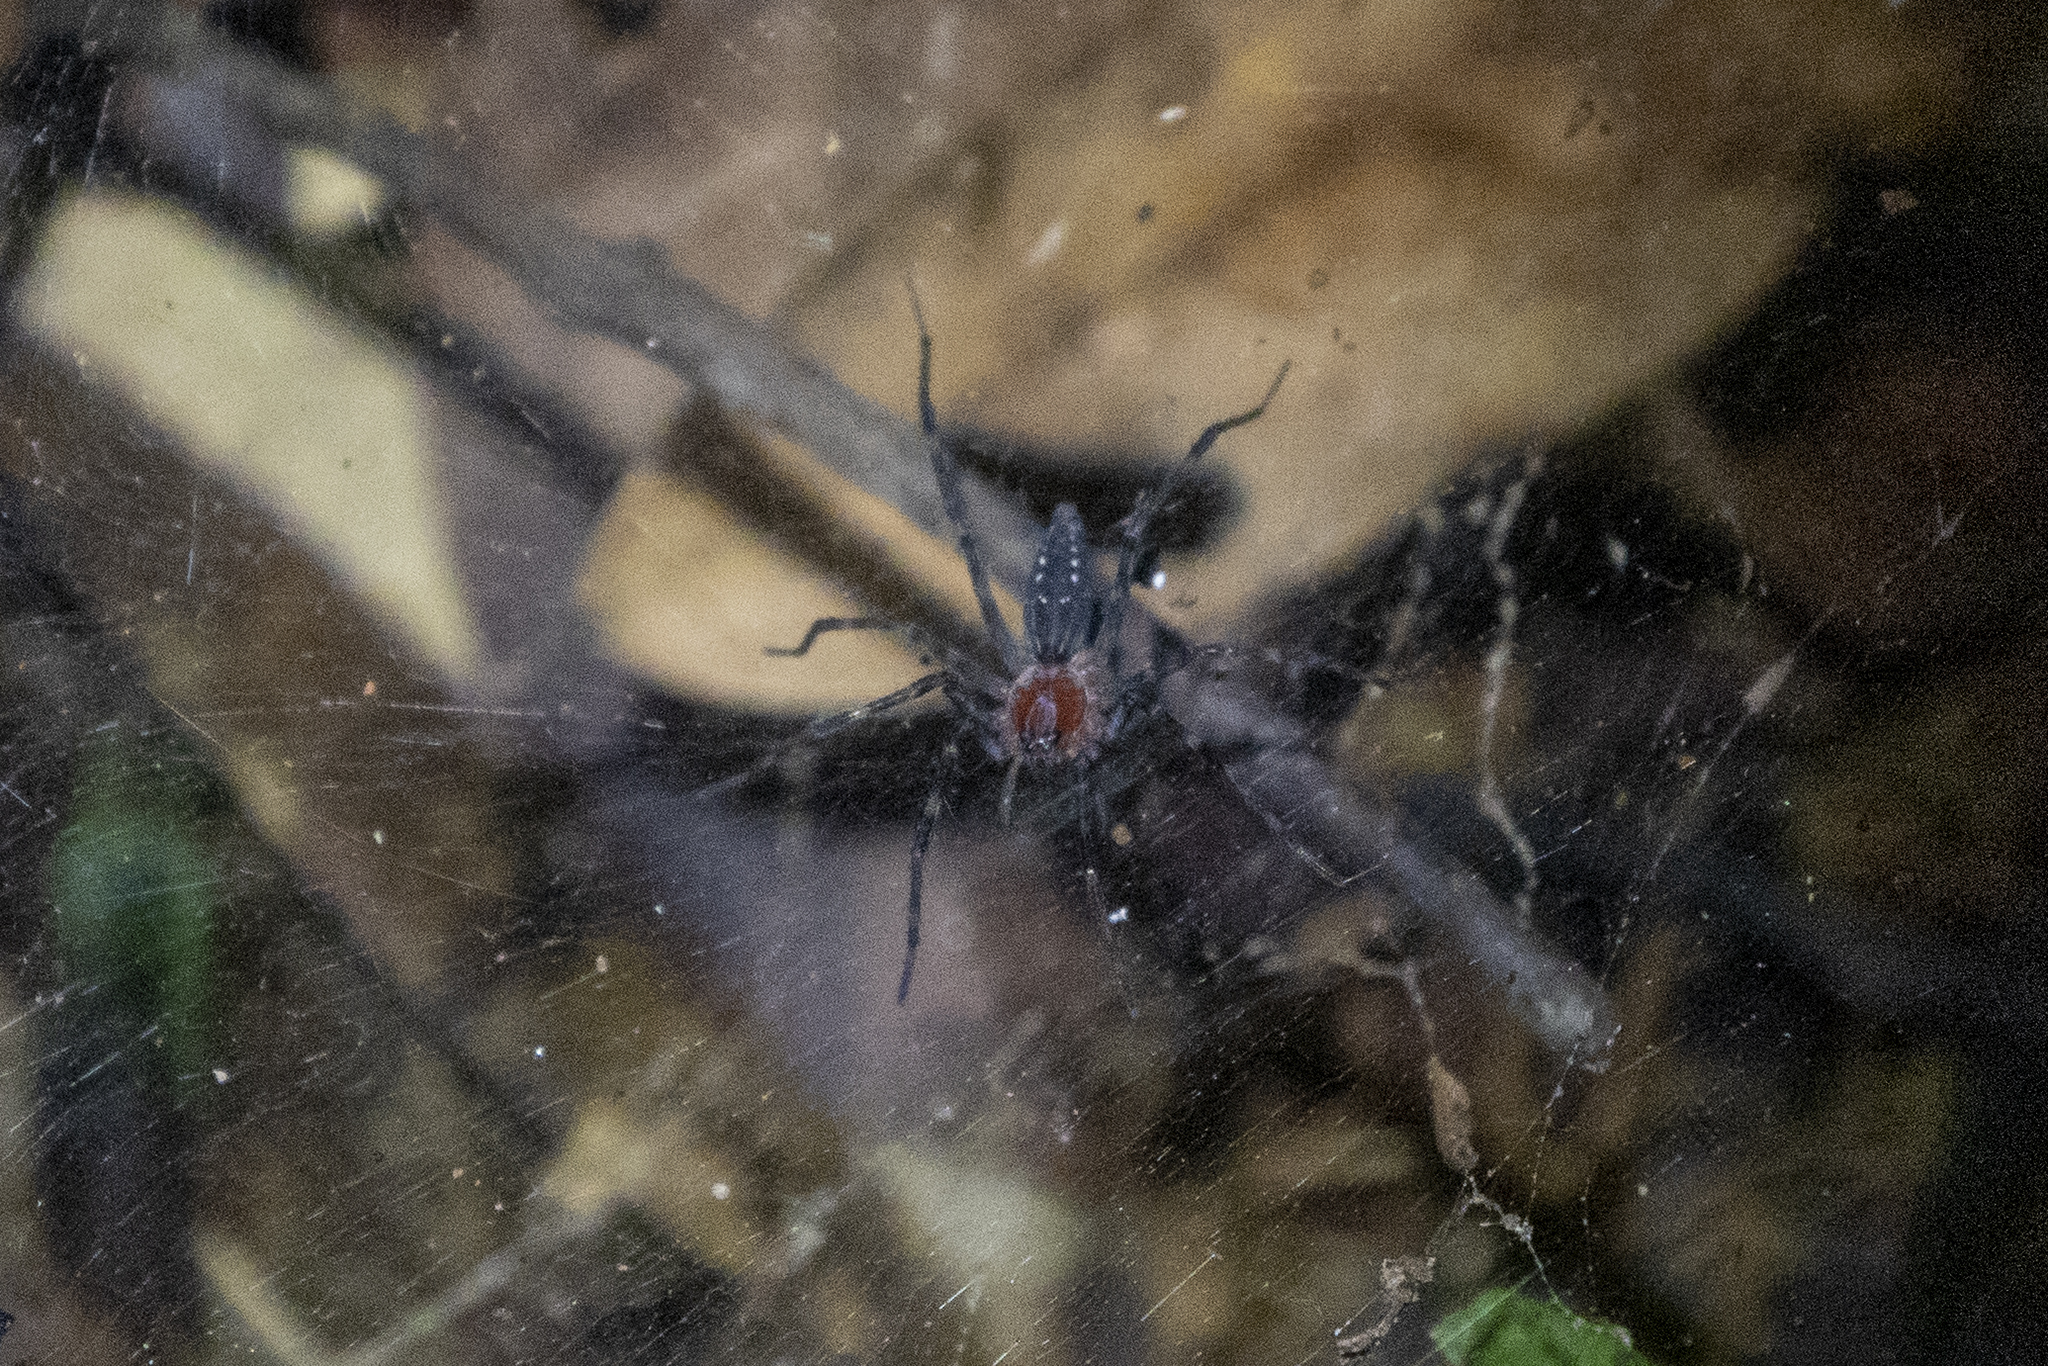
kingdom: Animalia
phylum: Arthropoda
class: Arachnida
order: Araneae
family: Lycosidae
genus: Aglaoctenus
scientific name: Aglaoctenus castaneus
